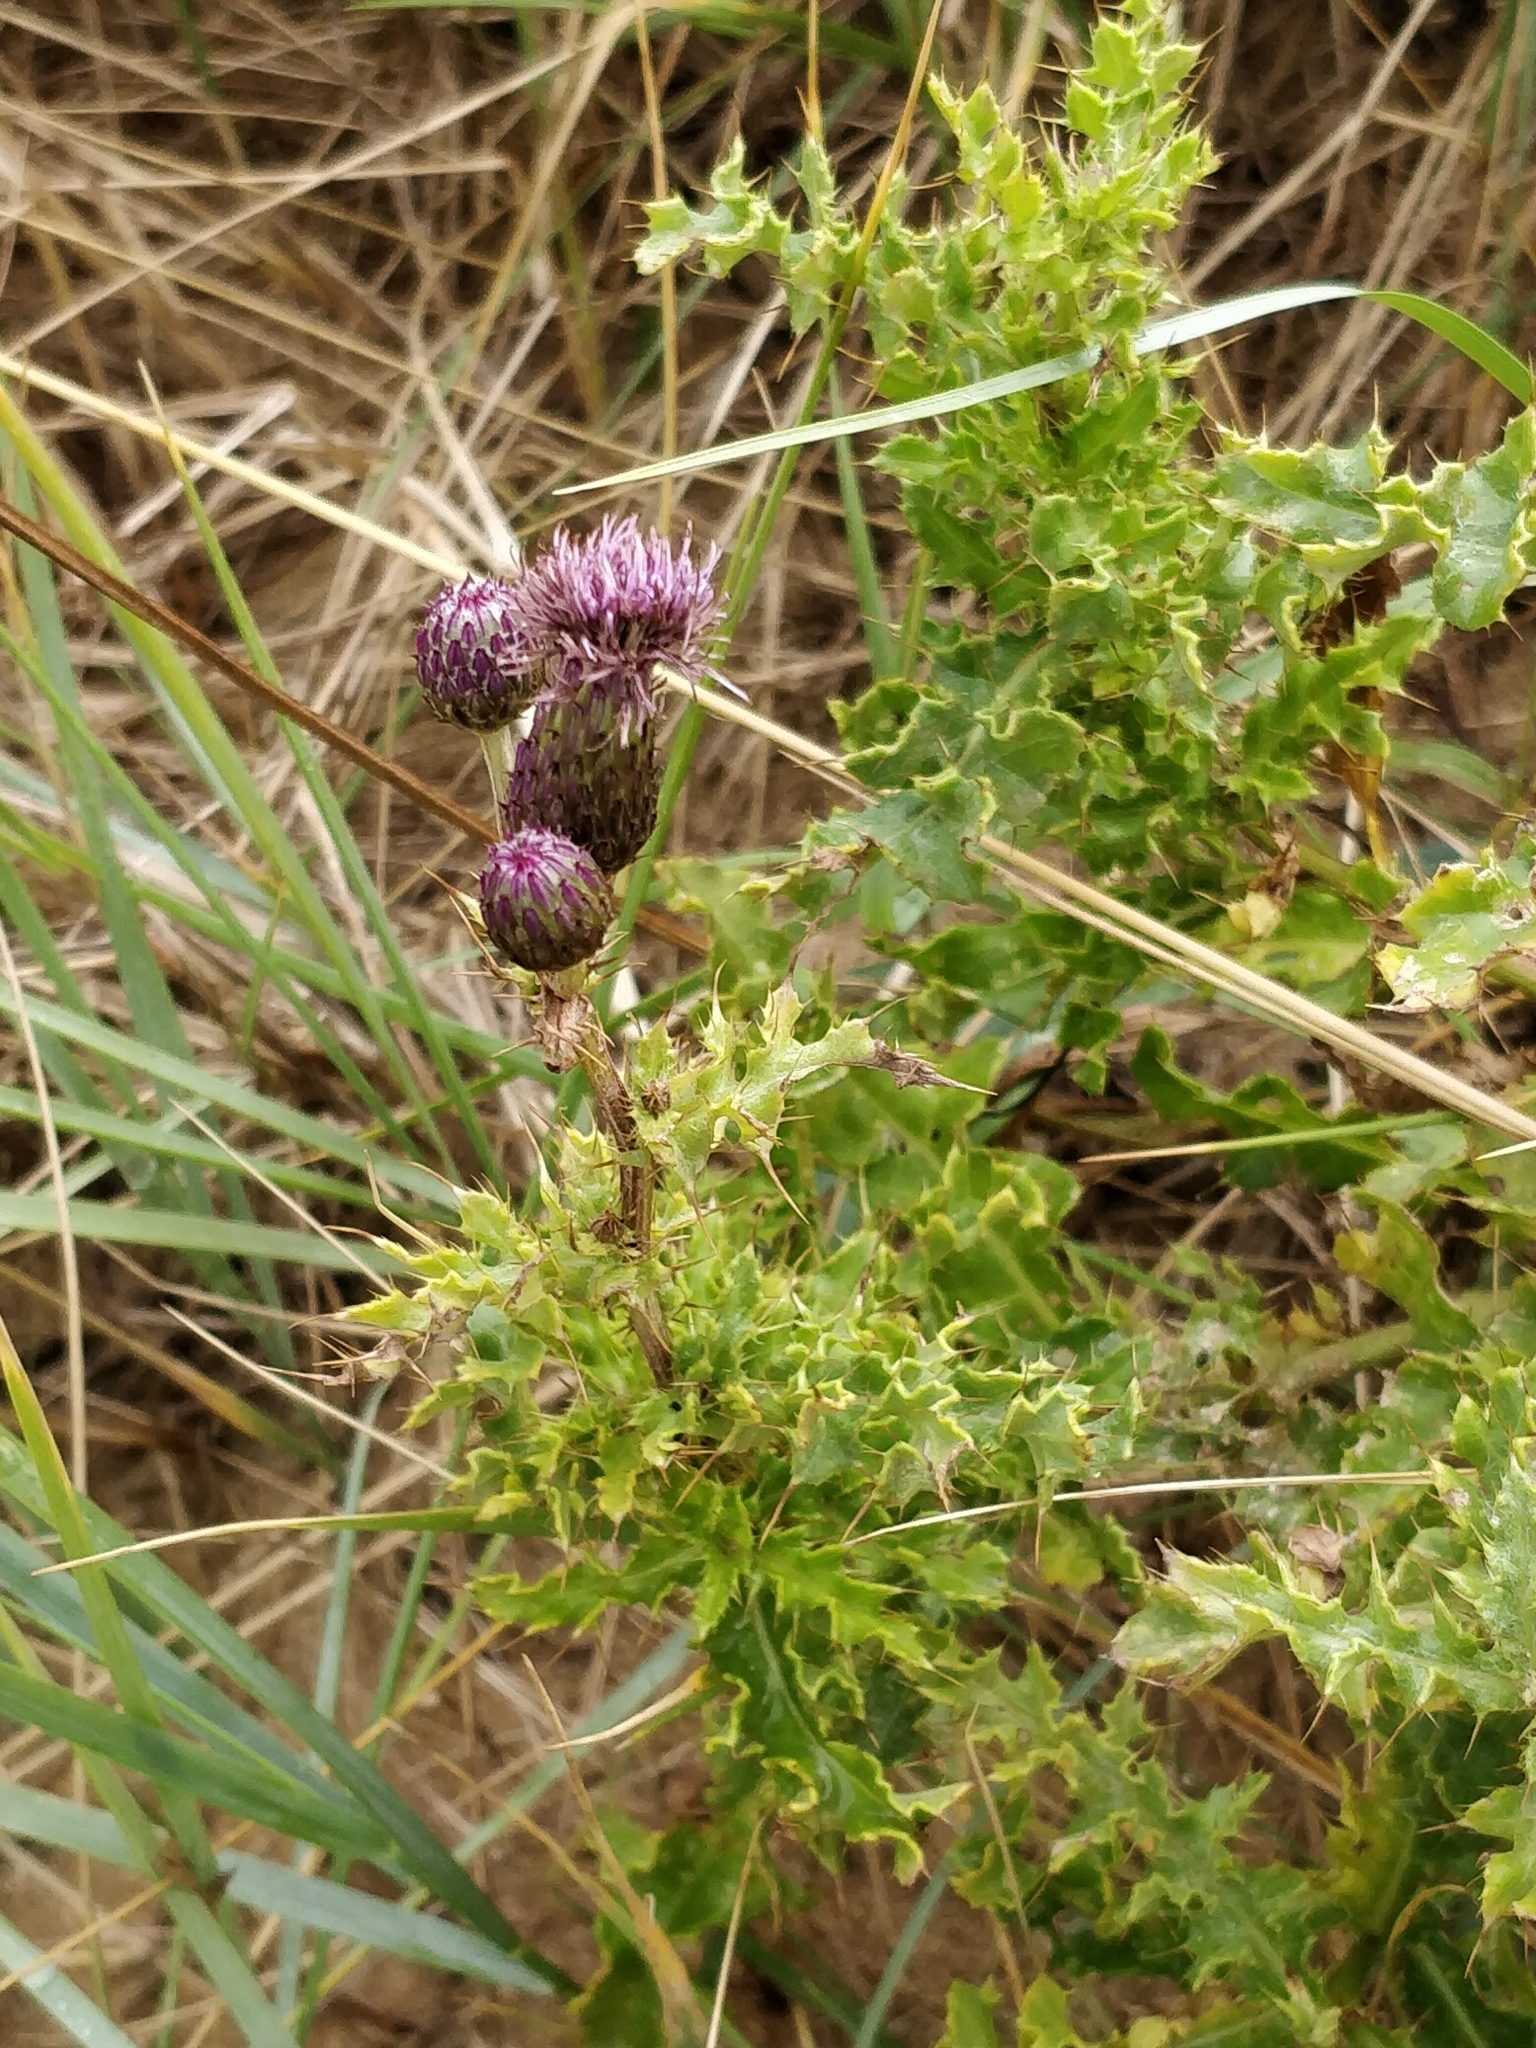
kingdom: Plantae
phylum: Tracheophyta
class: Magnoliopsida
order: Asterales
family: Asteraceae
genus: Cirsium
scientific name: Cirsium arvense
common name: Creeping thistle
